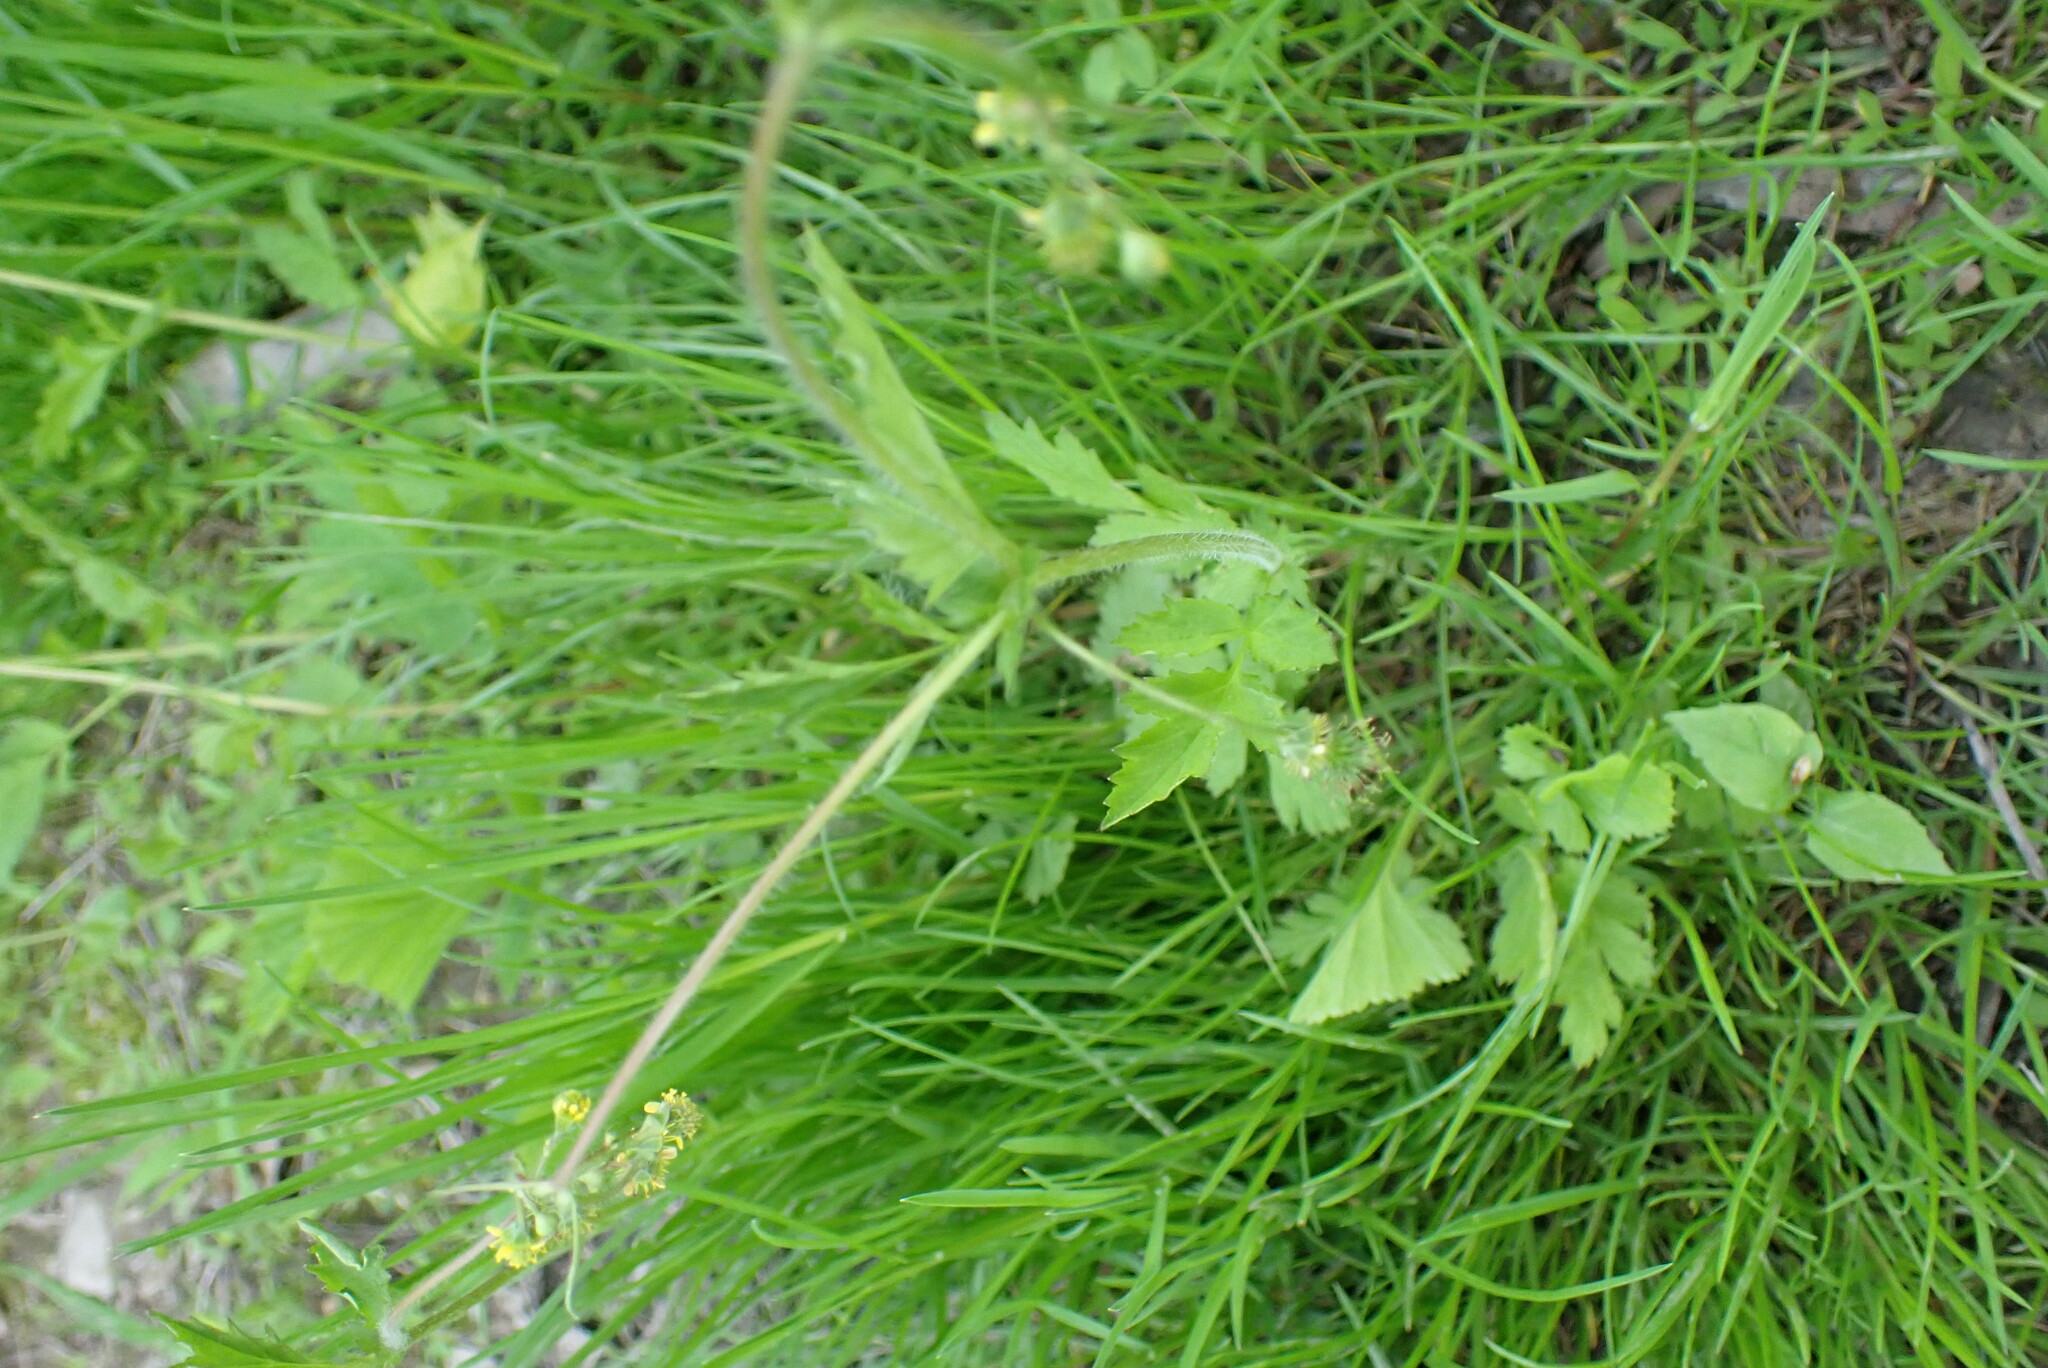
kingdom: Plantae
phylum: Tracheophyta
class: Magnoliopsida
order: Rosales
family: Rosaceae
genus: Geum
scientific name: Geum vernum
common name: Spring avens
